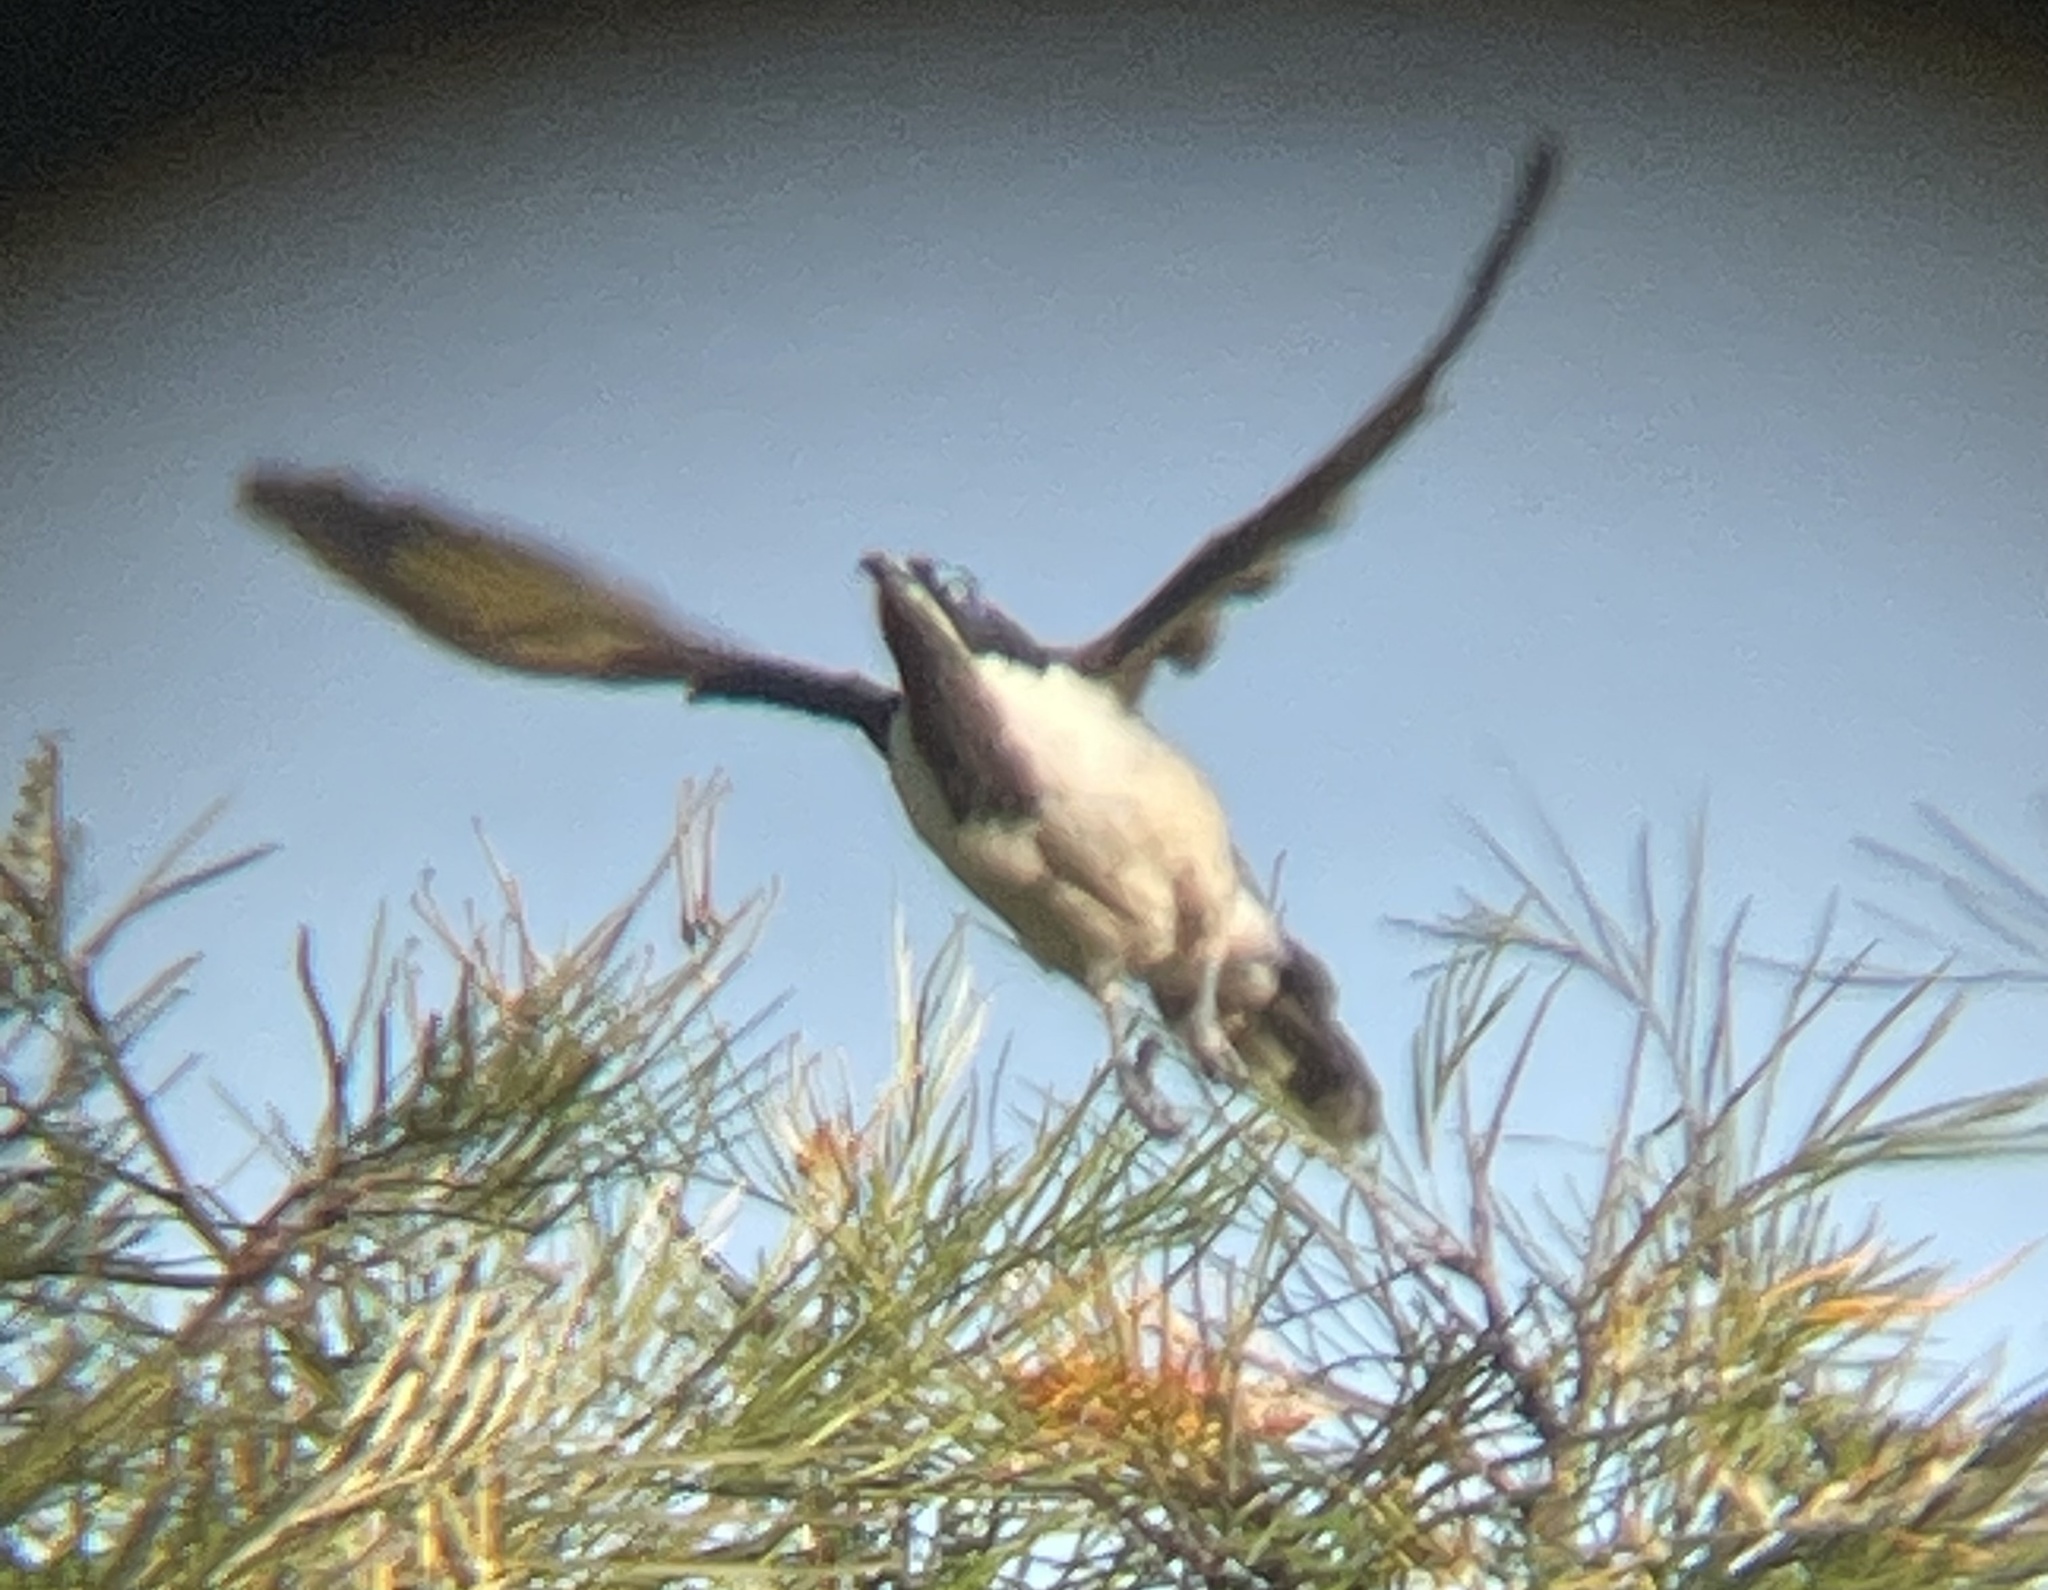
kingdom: Animalia
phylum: Chordata
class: Aves
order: Passeriformes
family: Meliphagidae
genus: Entomyzon
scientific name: Entomyzon cyanotis
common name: Blue-faced honeyeater
